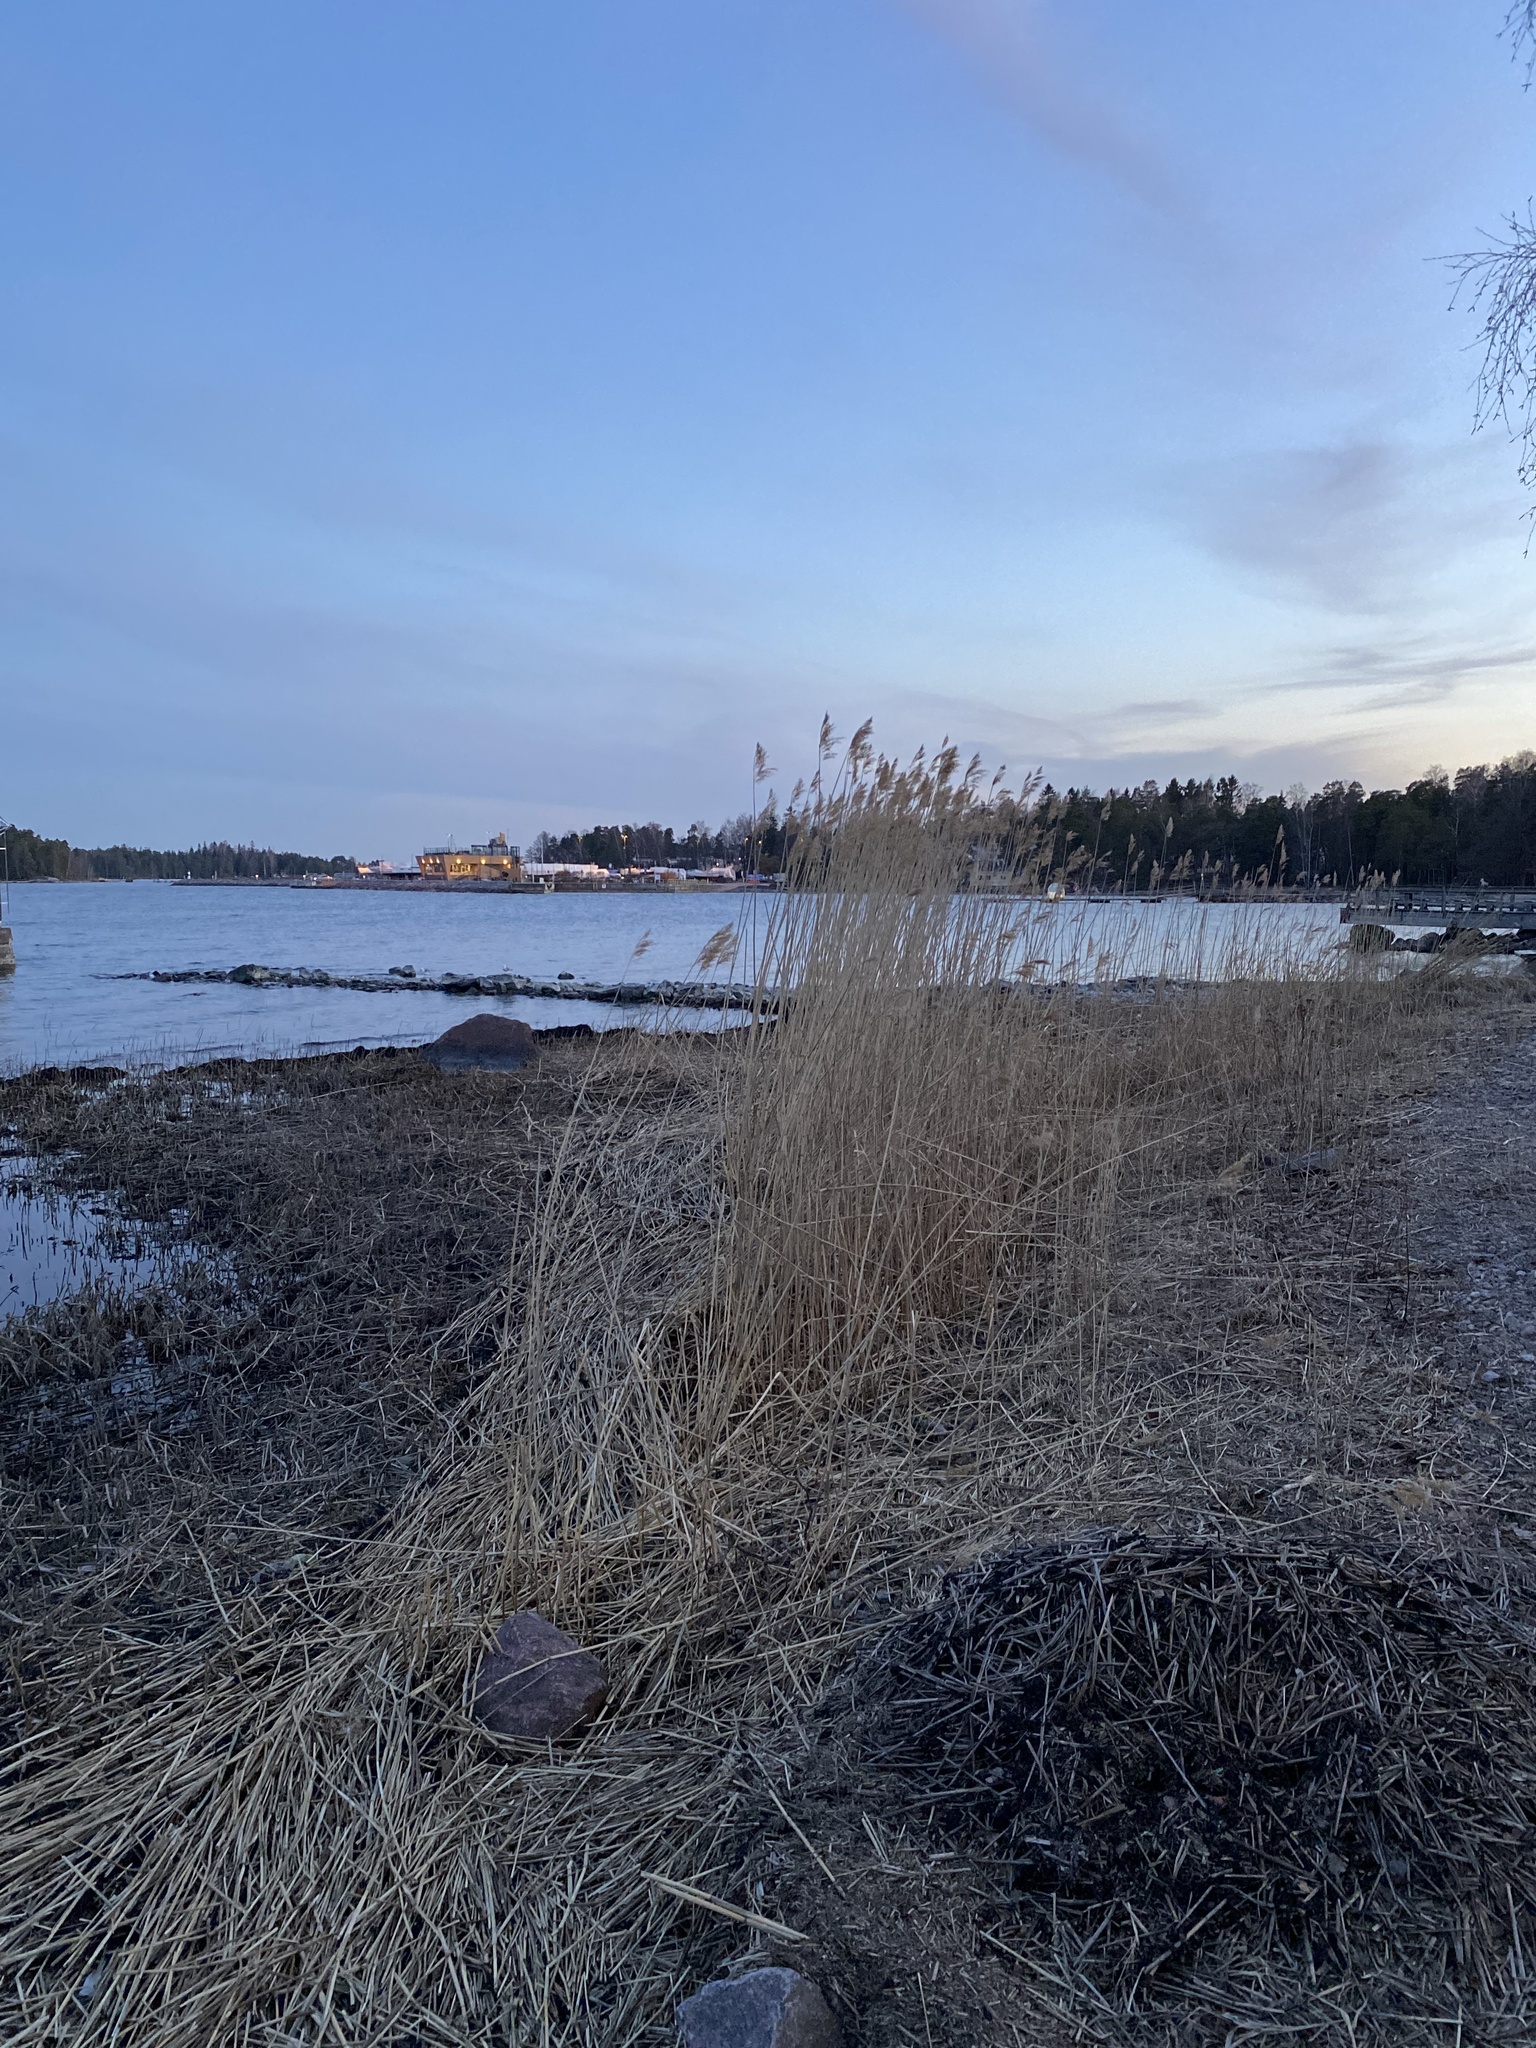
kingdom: Plantae
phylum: Tracheophyta
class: Liliopsida
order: Poales
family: Poaceae
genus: Phragmites
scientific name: Phragmites australis
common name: Common reed
